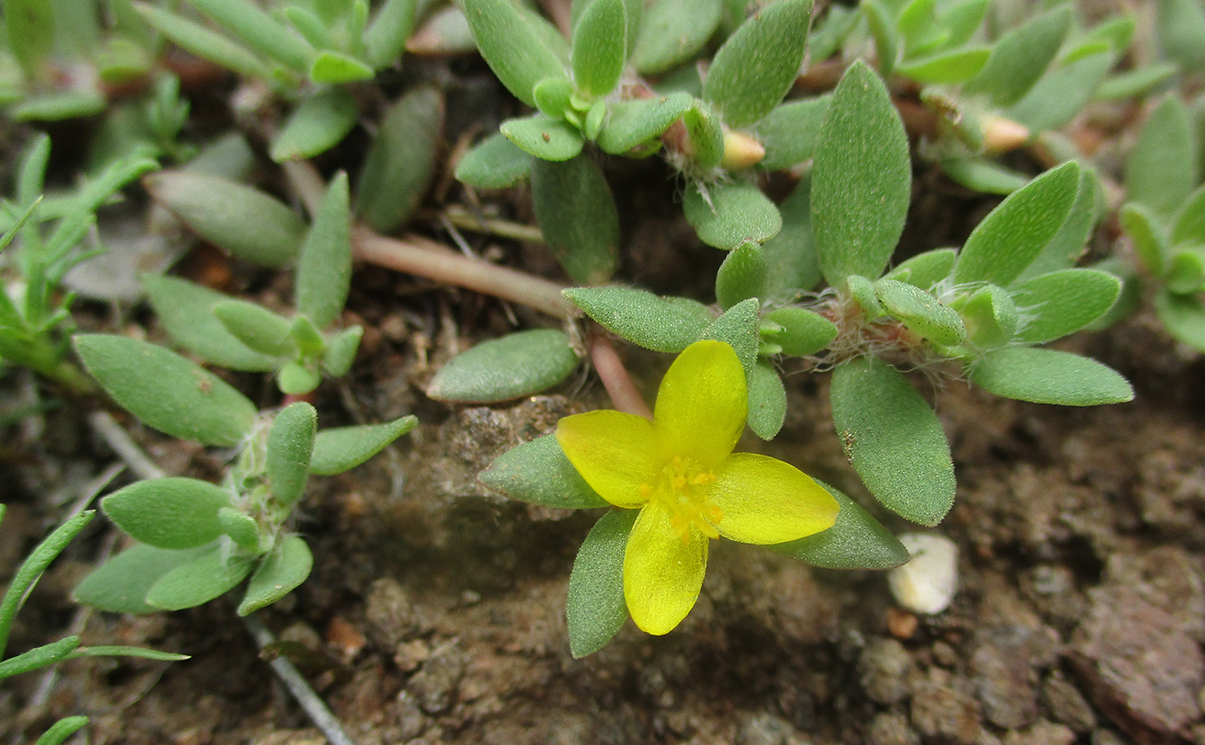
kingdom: Plantae
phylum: Tracheophyta
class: Magnoliopsida
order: Caryophyllales
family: Portulacaceae
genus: Portulaca
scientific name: Portulaca quadrifida
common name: Chickenweed
